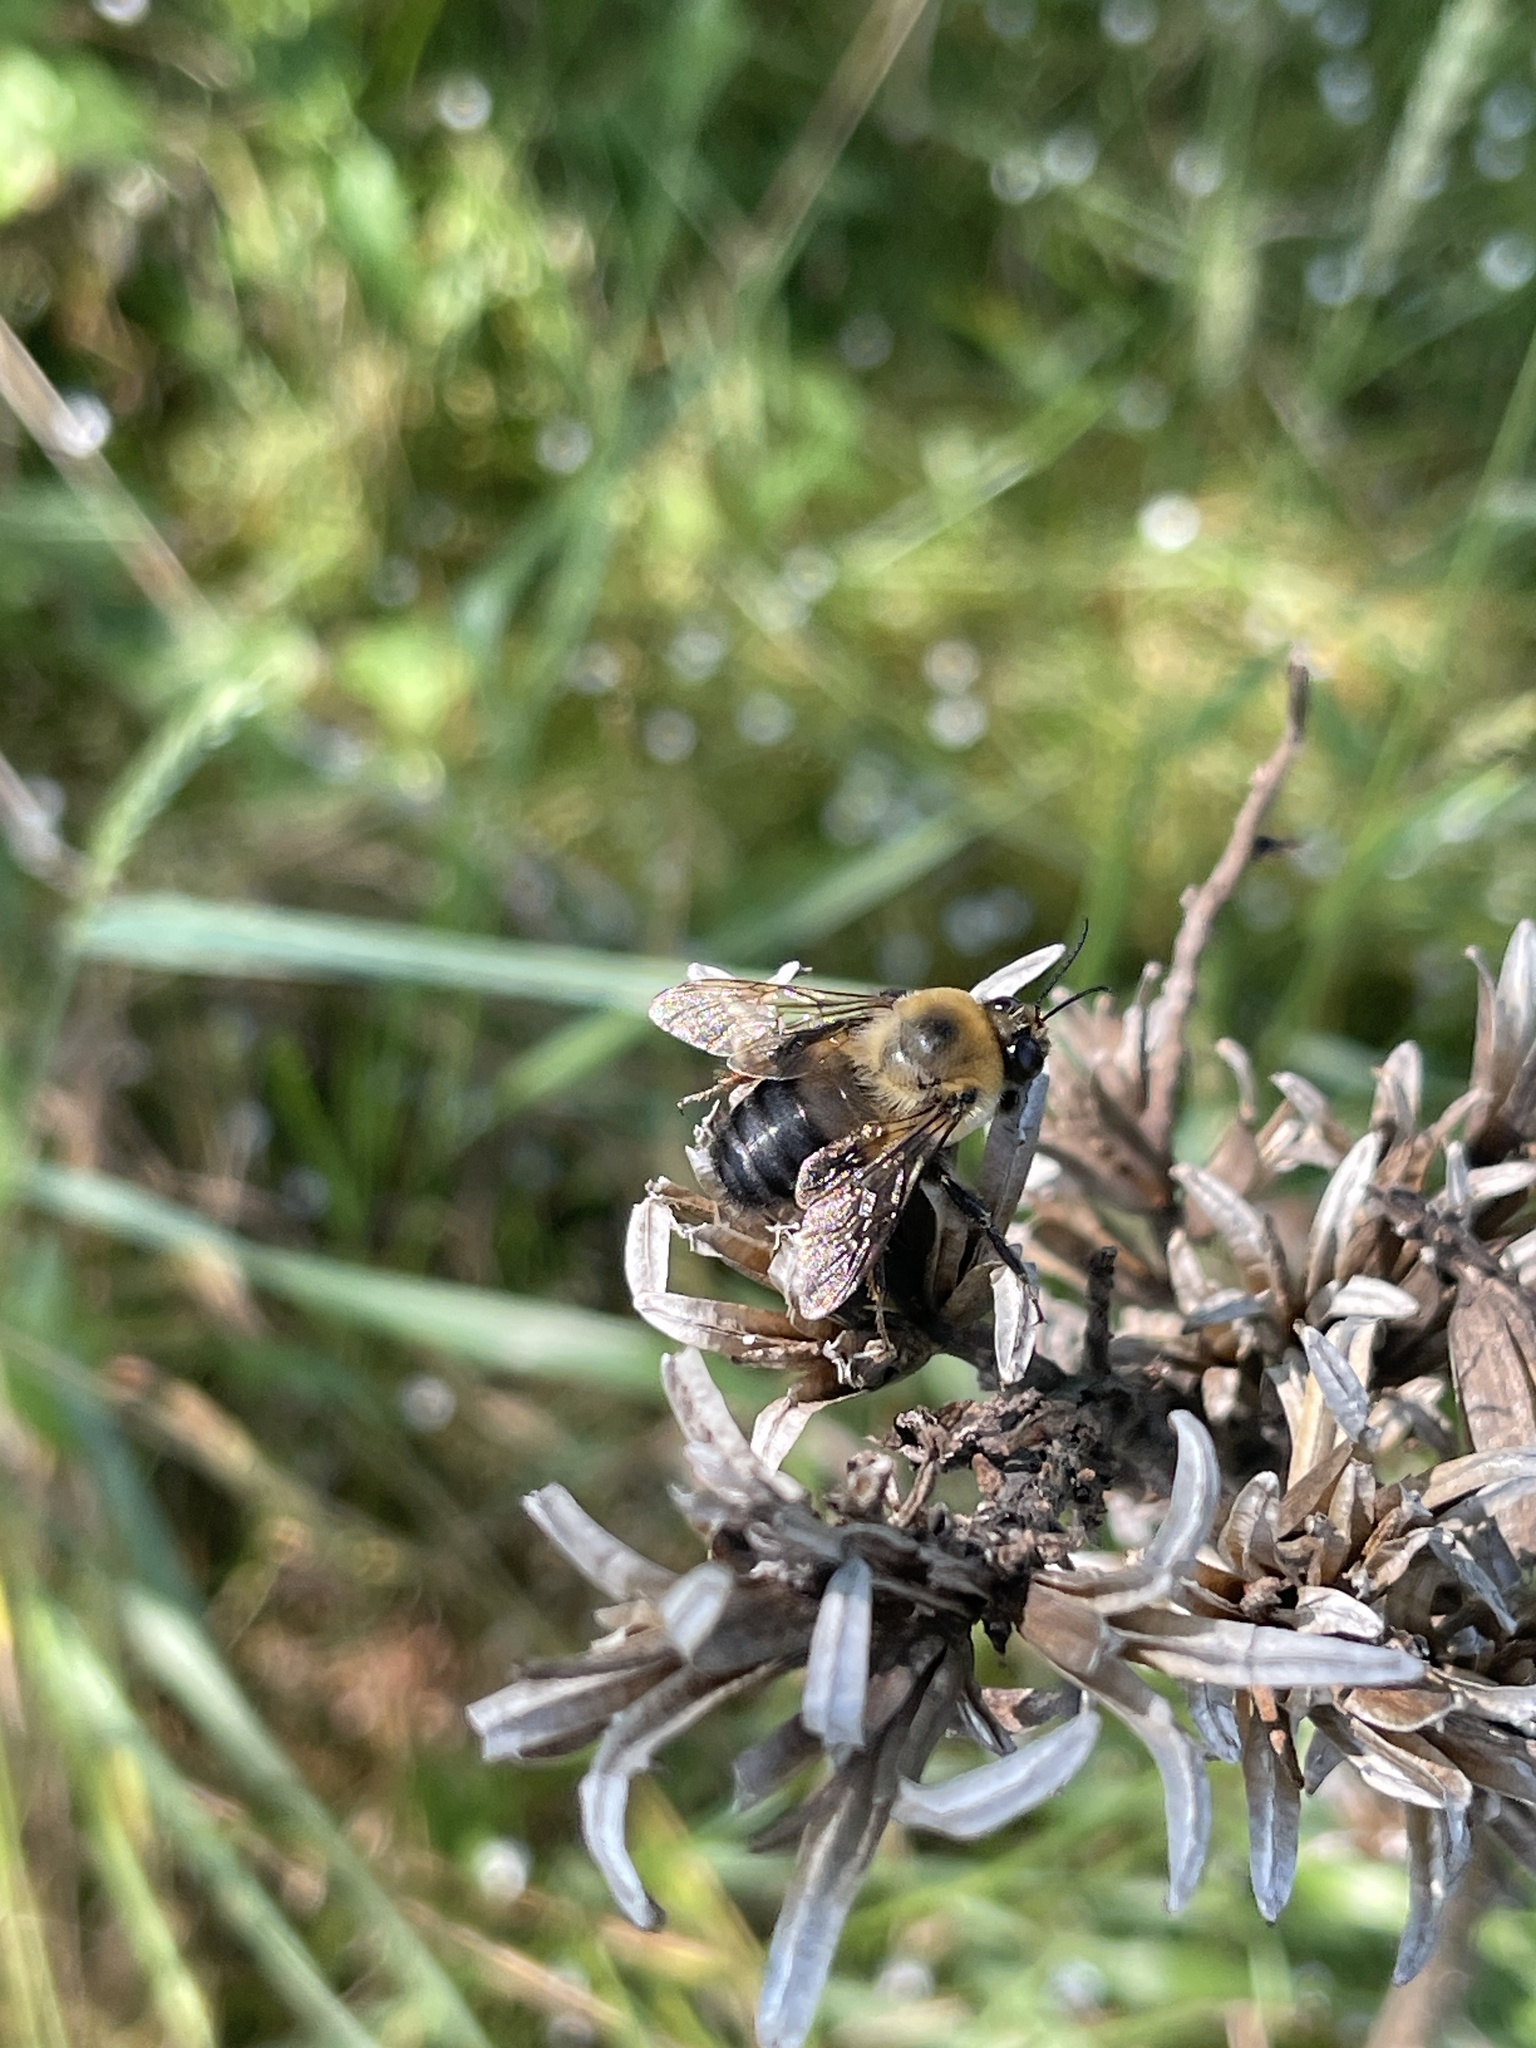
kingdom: Animalia
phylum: Arthropoda
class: Insecta
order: Hymenoptera
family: Apidae
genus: Bombus
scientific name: Bombus griseocollis
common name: Brown-belted bumble bee
